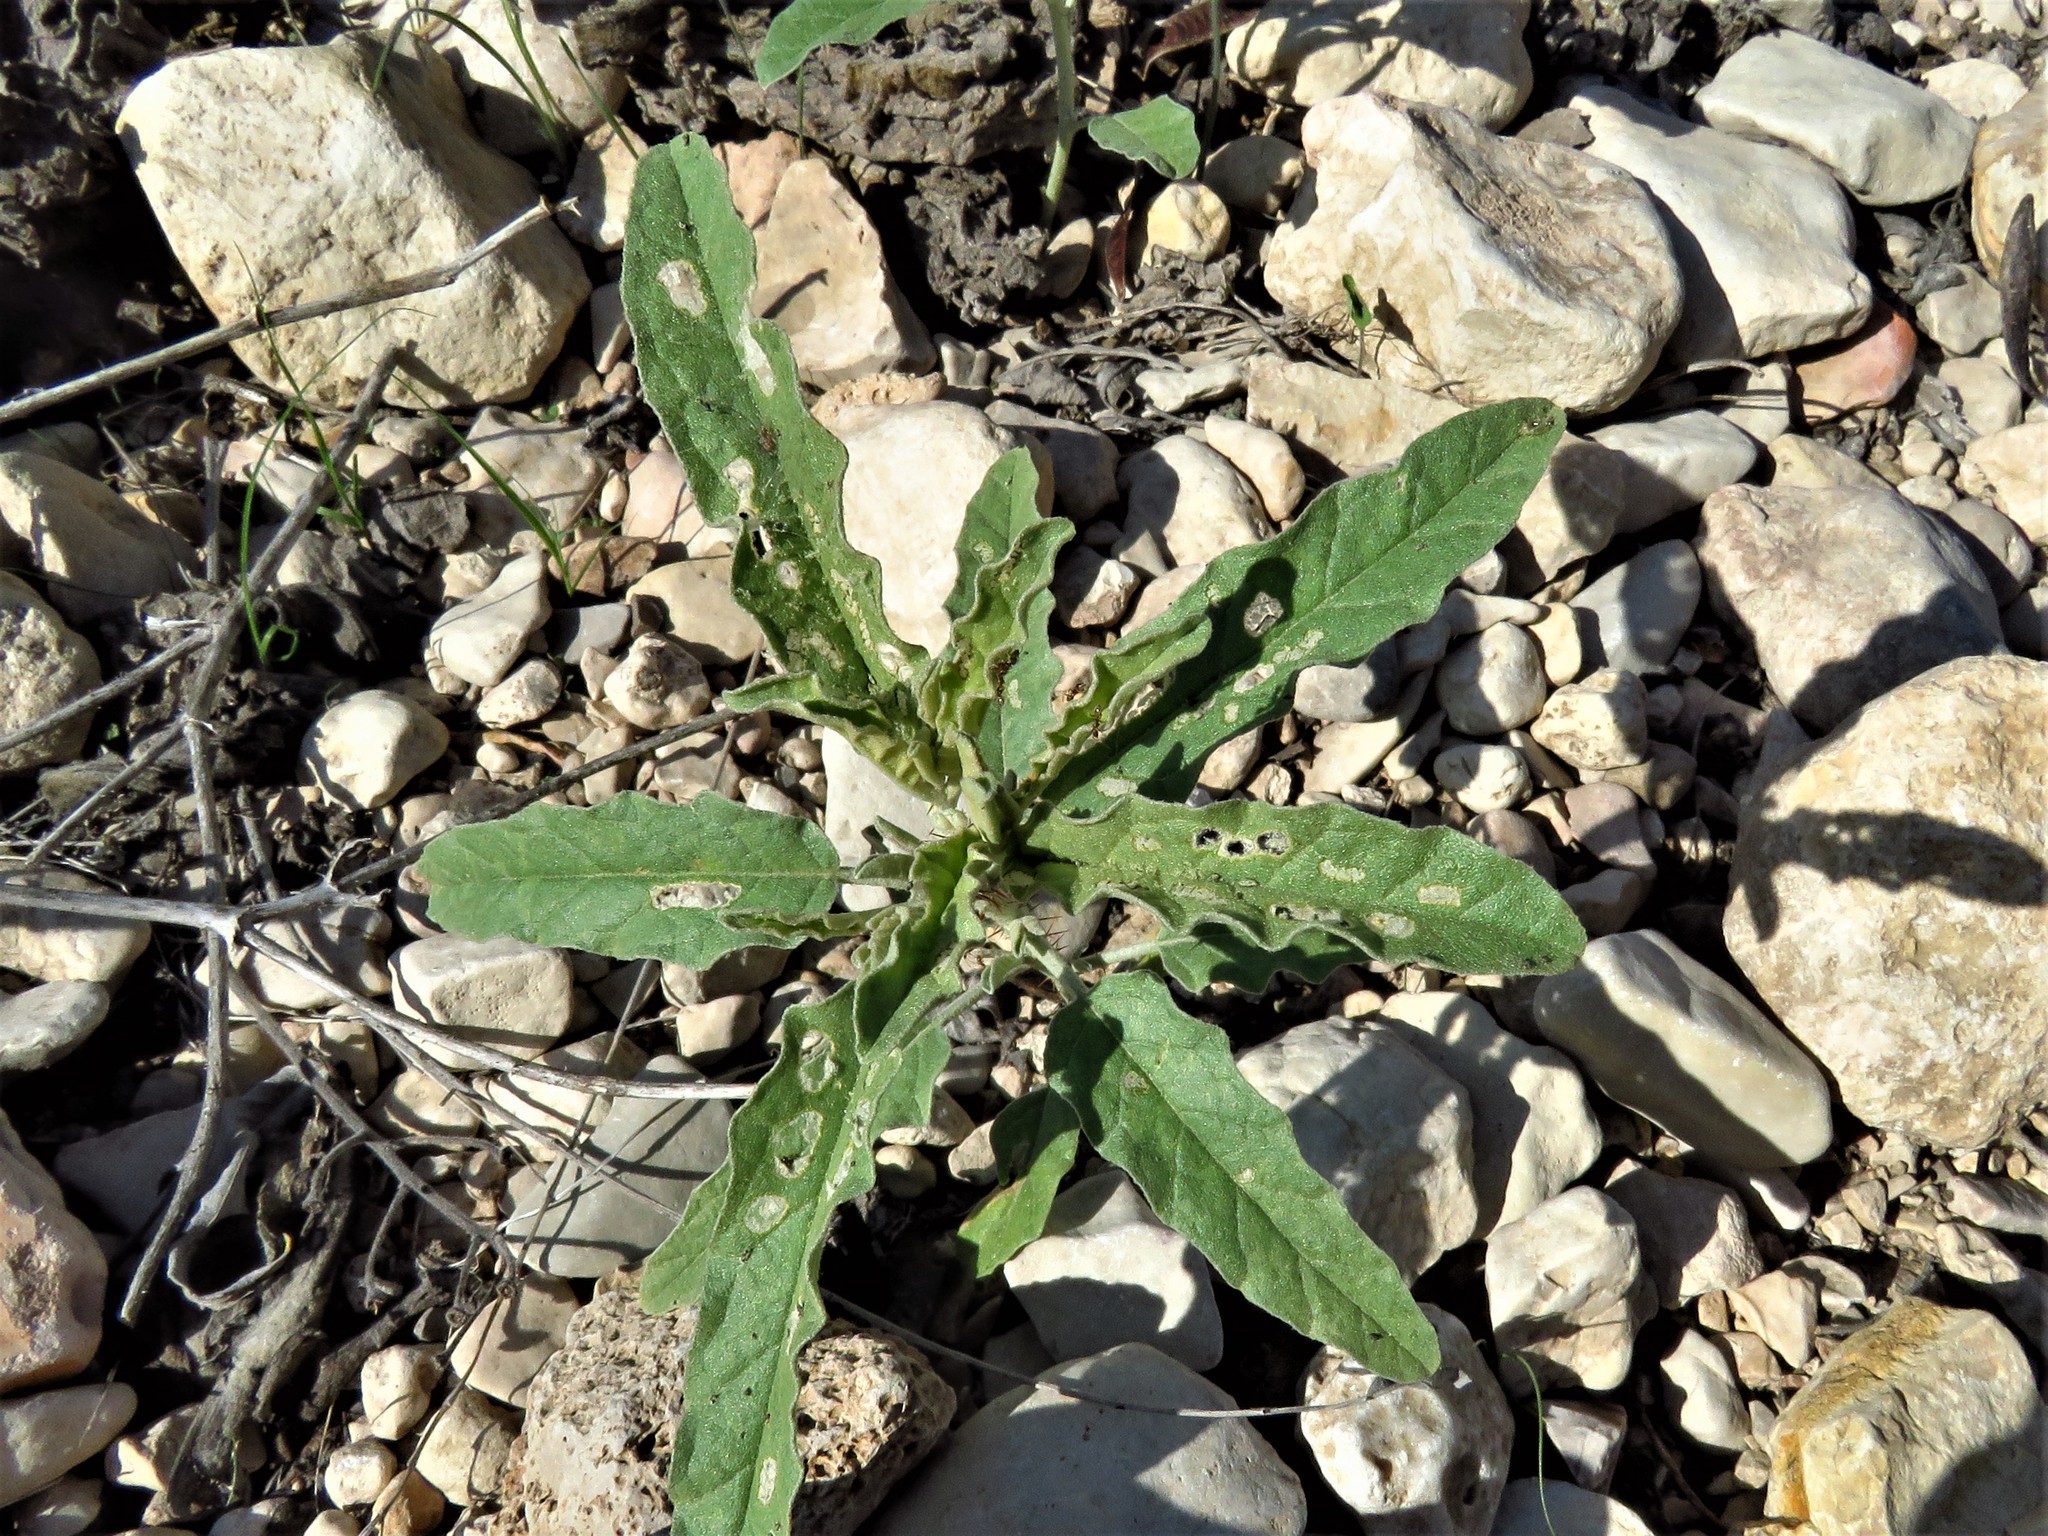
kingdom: Plantae
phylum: Tracheophyta
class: Magnoliopsida
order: Solanales
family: Solanaceae
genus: Solanum
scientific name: Solanum elaeagnifolium
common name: Silverleaf nightshade
